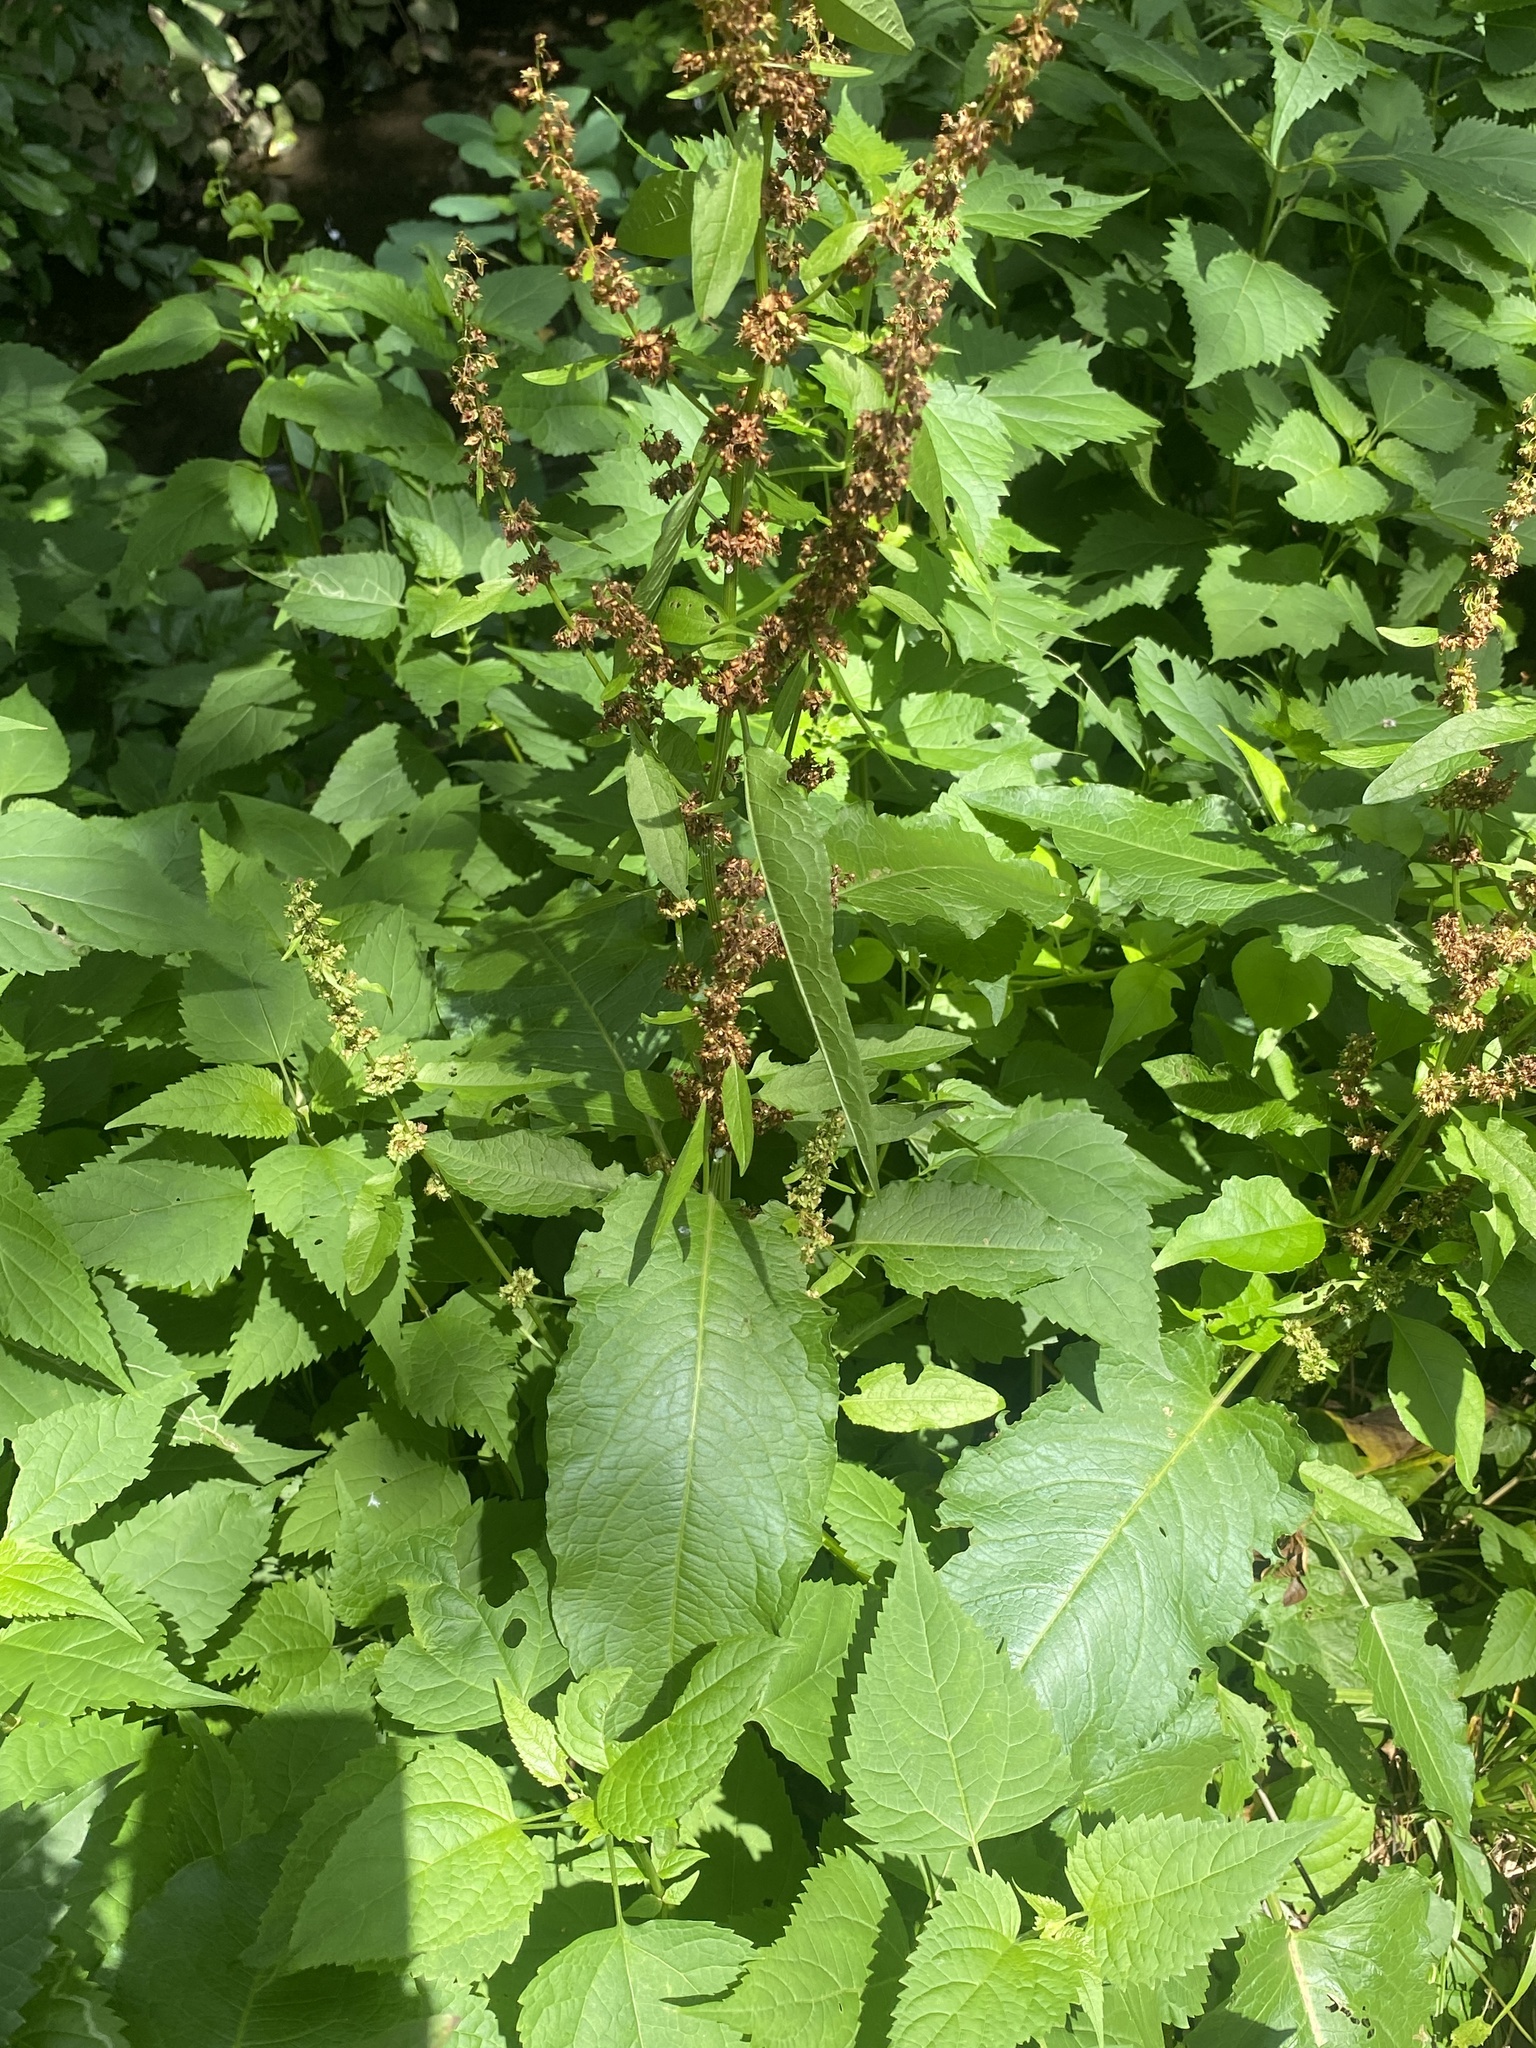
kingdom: Plantae
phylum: Tracheophyta
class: Magnoliopsida
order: Caryophyllales
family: Polygonaceae
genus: Rumex
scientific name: Rumex obtusifolius
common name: Bitter dock
